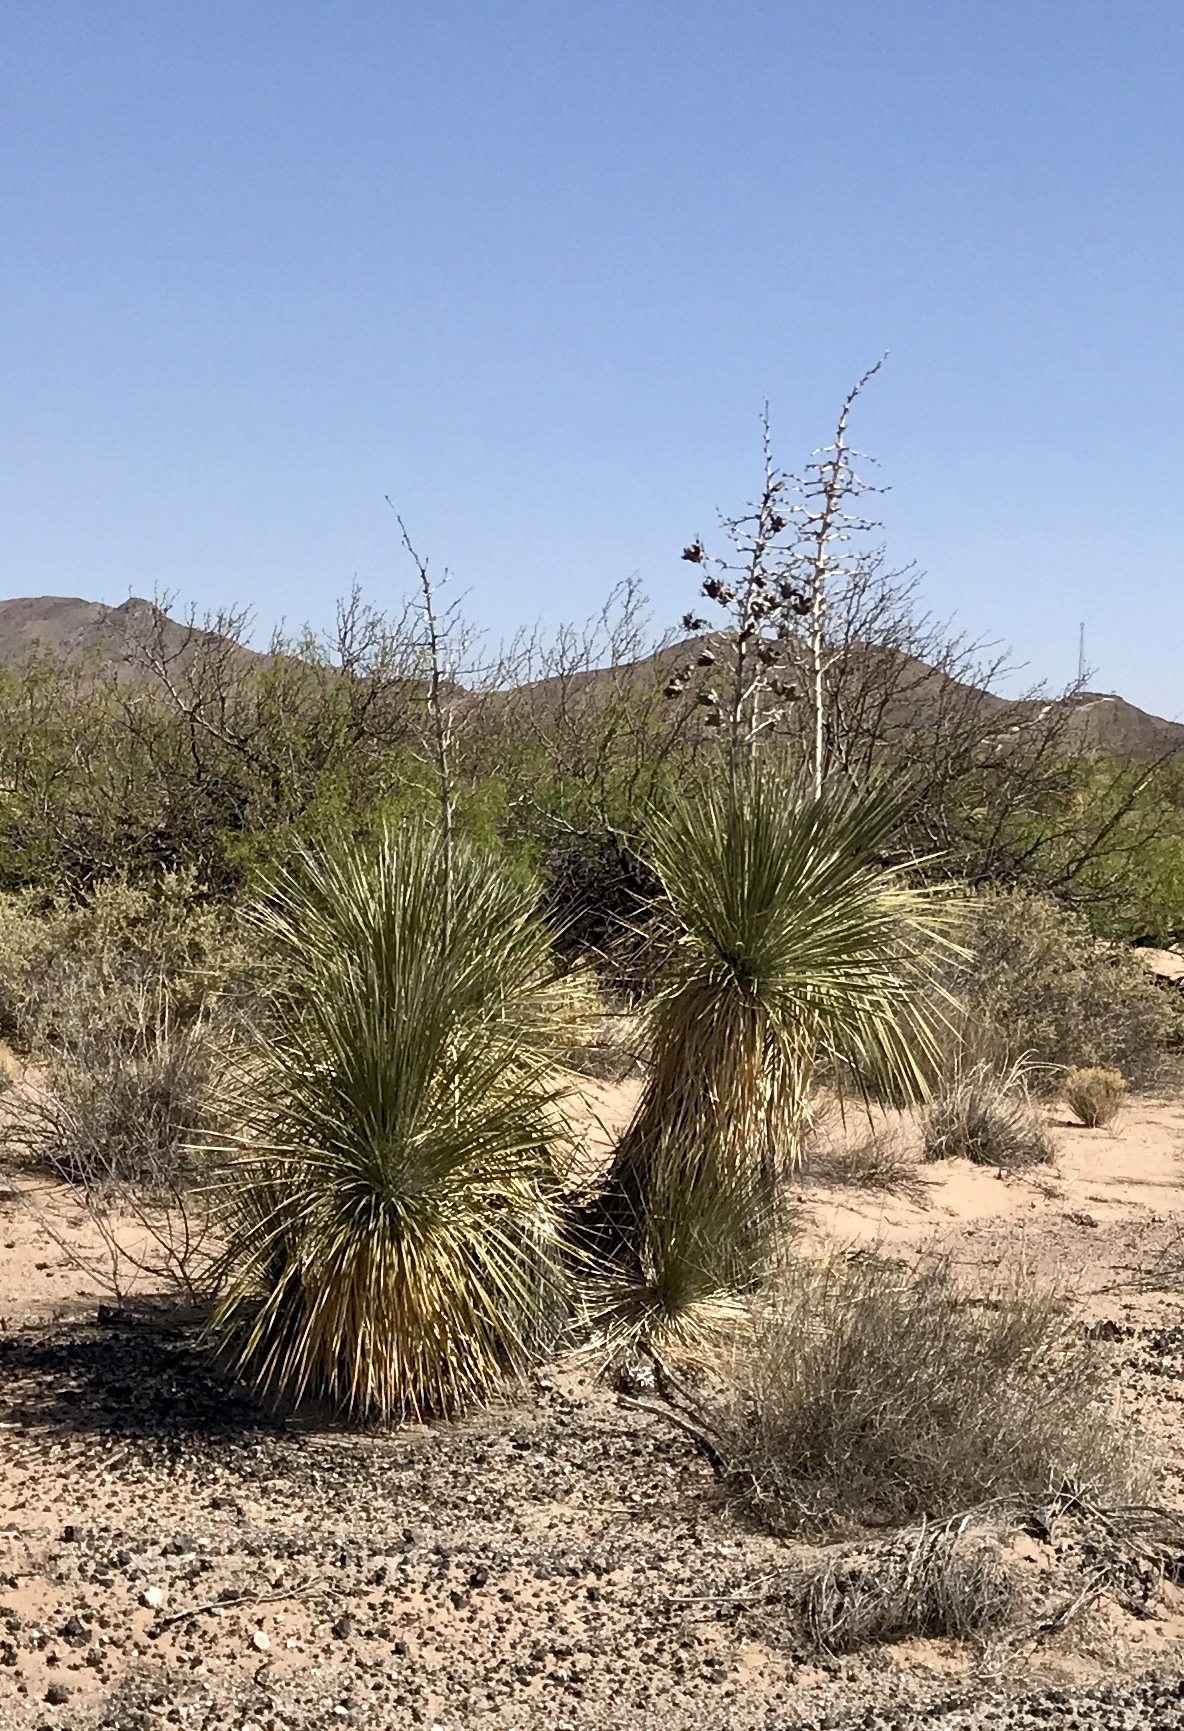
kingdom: Plantae
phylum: Tracheophyta
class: Liliopsida
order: Asparagales
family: Asparagaceae
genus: Yucca
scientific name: Yucca elata
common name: Palmella
